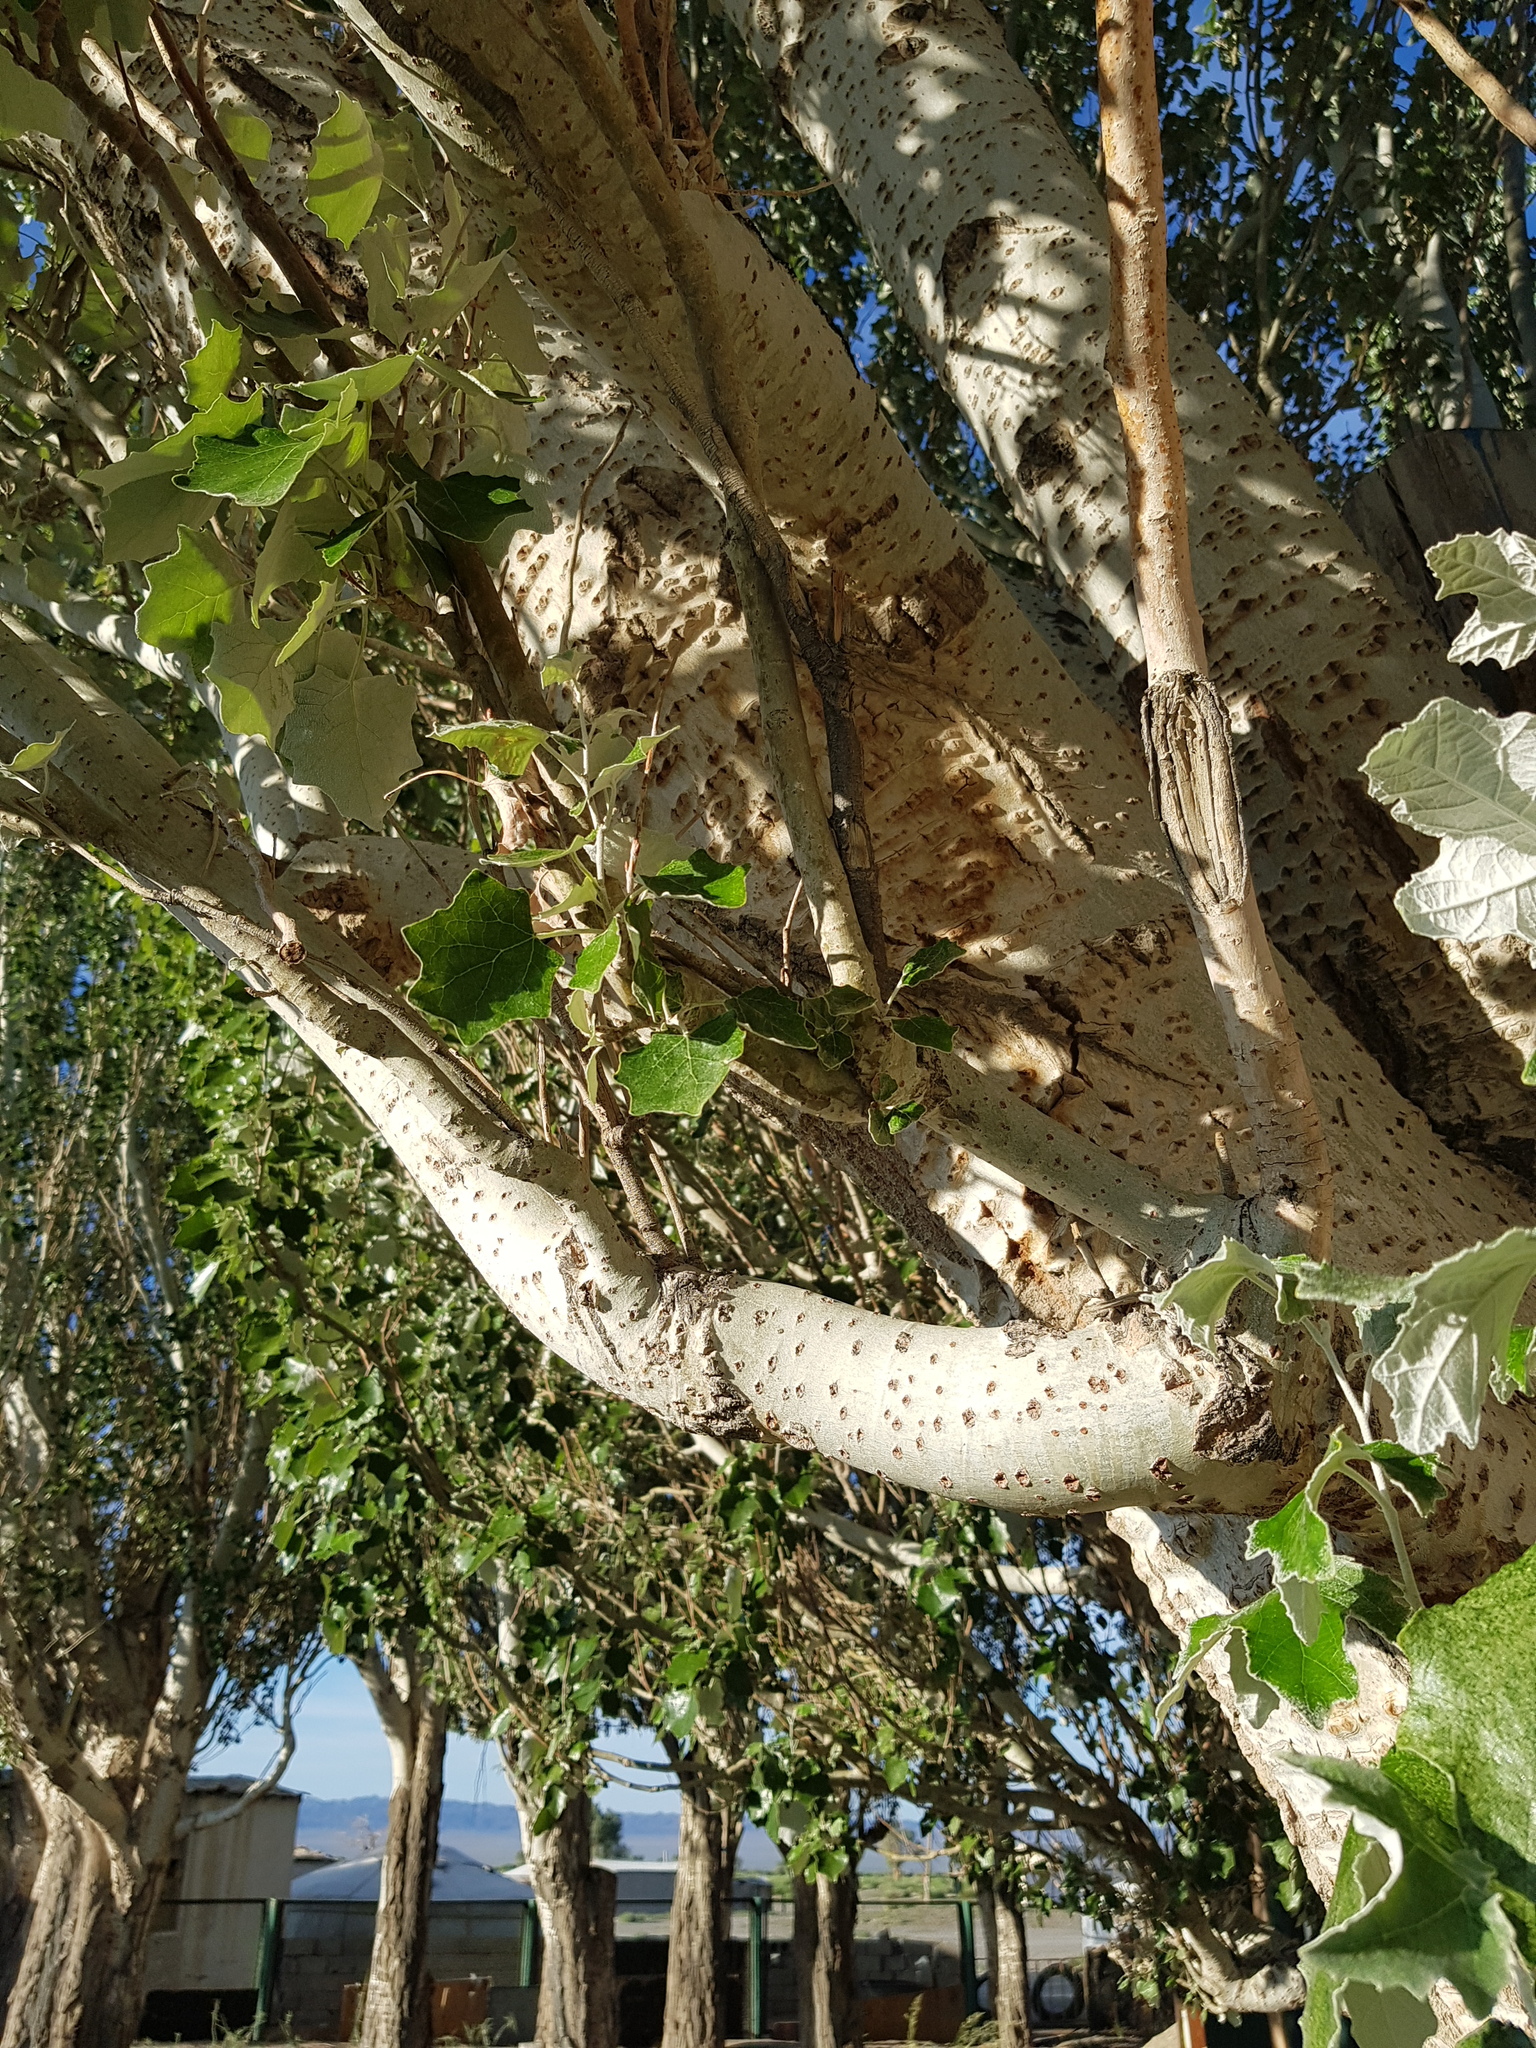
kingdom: Plantae
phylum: Tracheophyta
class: Magnoliopsida
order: Malpighiales
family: Salicaceae
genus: Populus
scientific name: Populus alba
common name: White poplar
